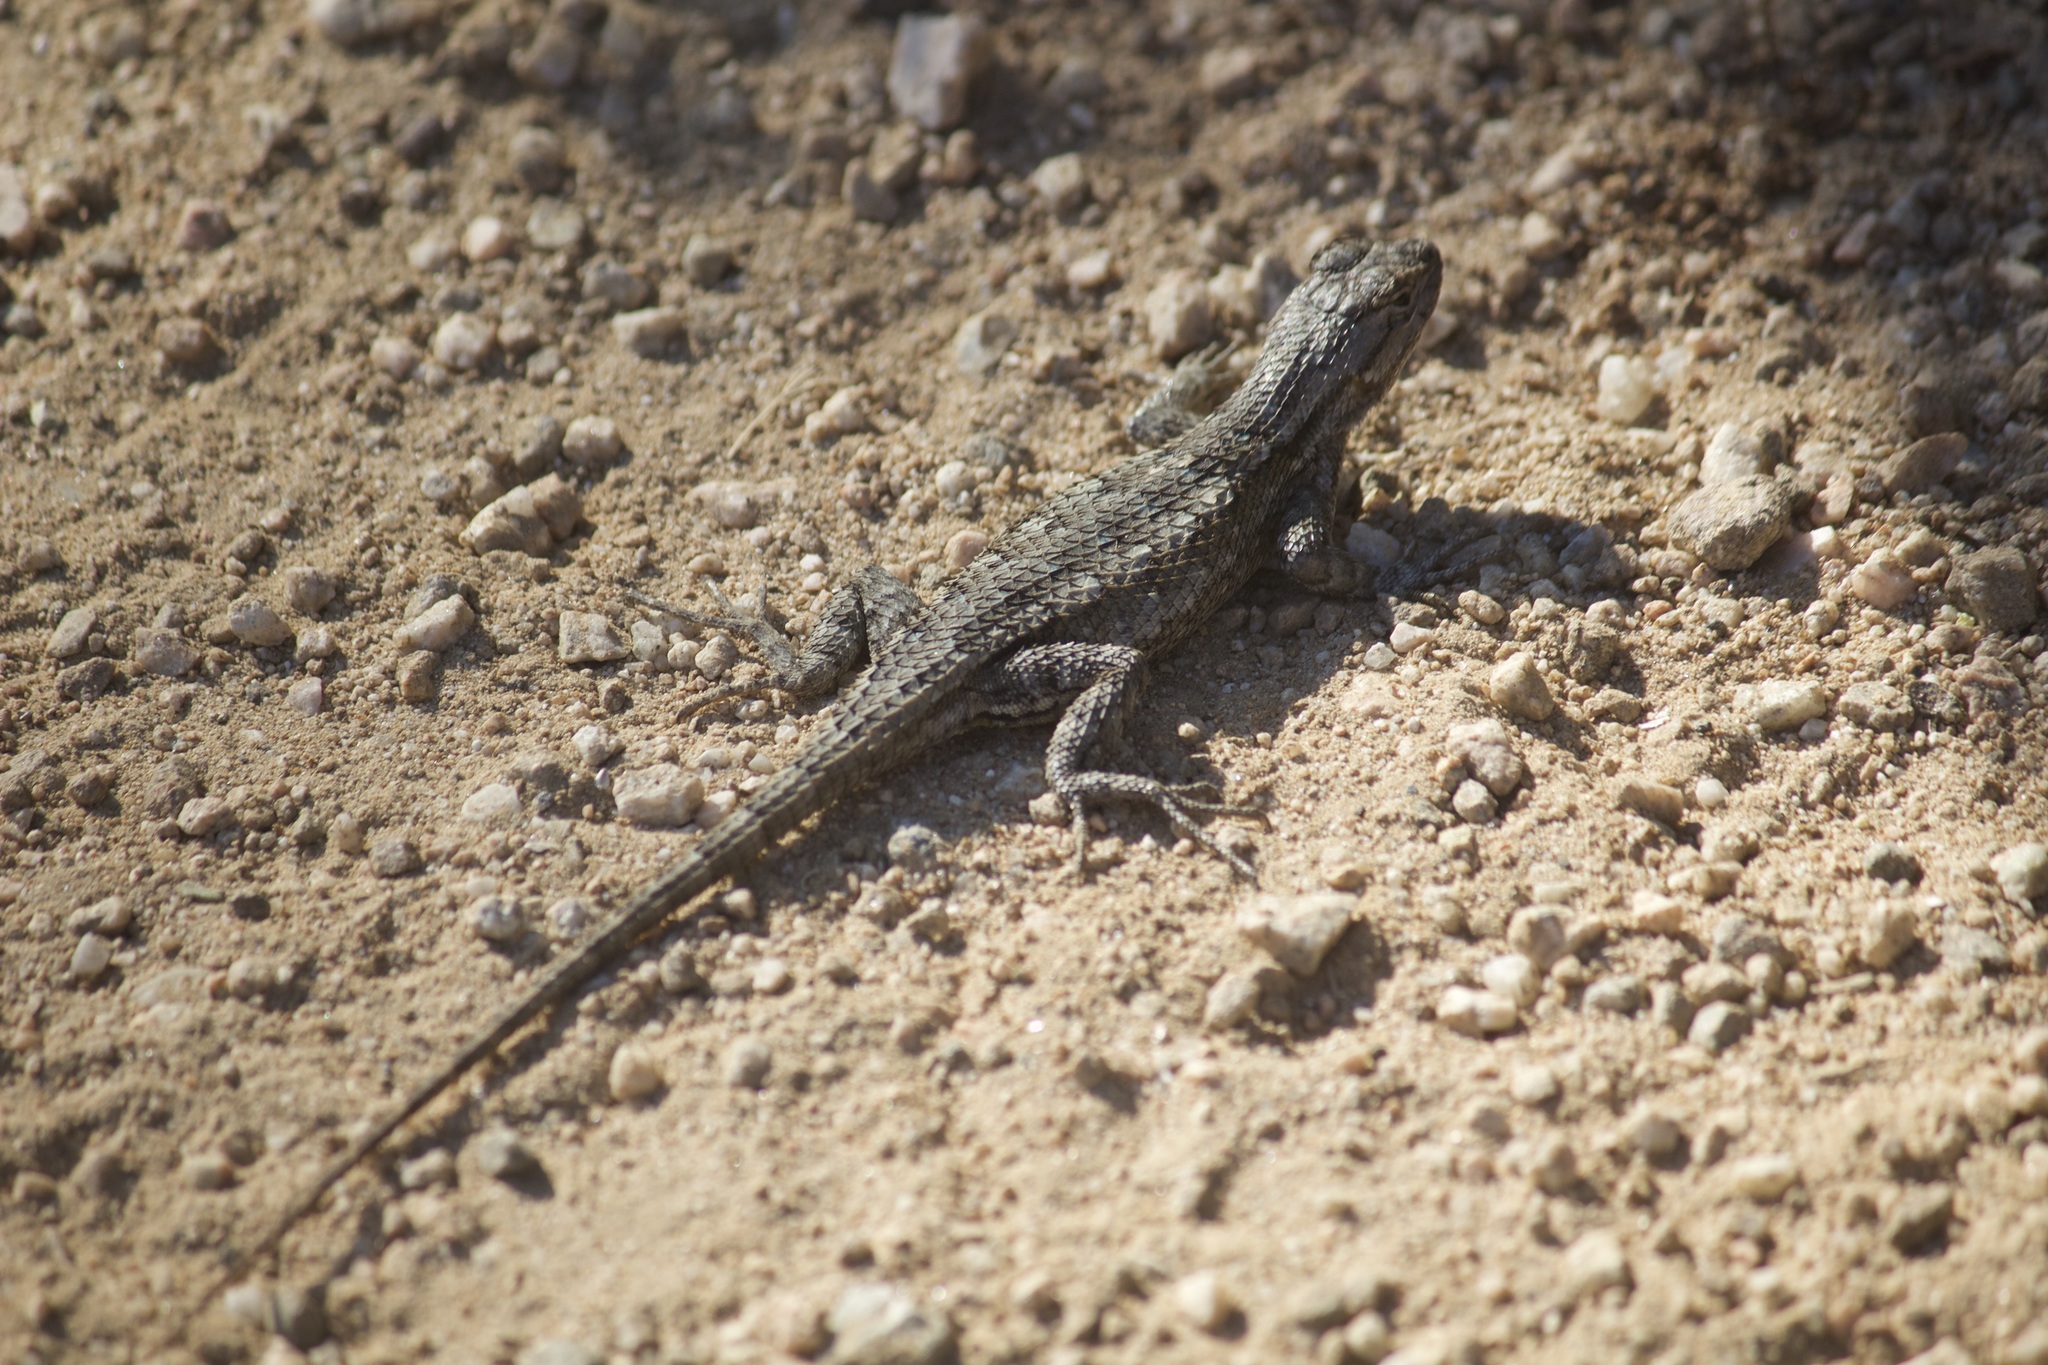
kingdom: Animalia
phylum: Chordata
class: Squamata
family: Phrynosomatidae
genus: Sceloporus
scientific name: Sceloporus occidentalis
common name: Western fence lizard
